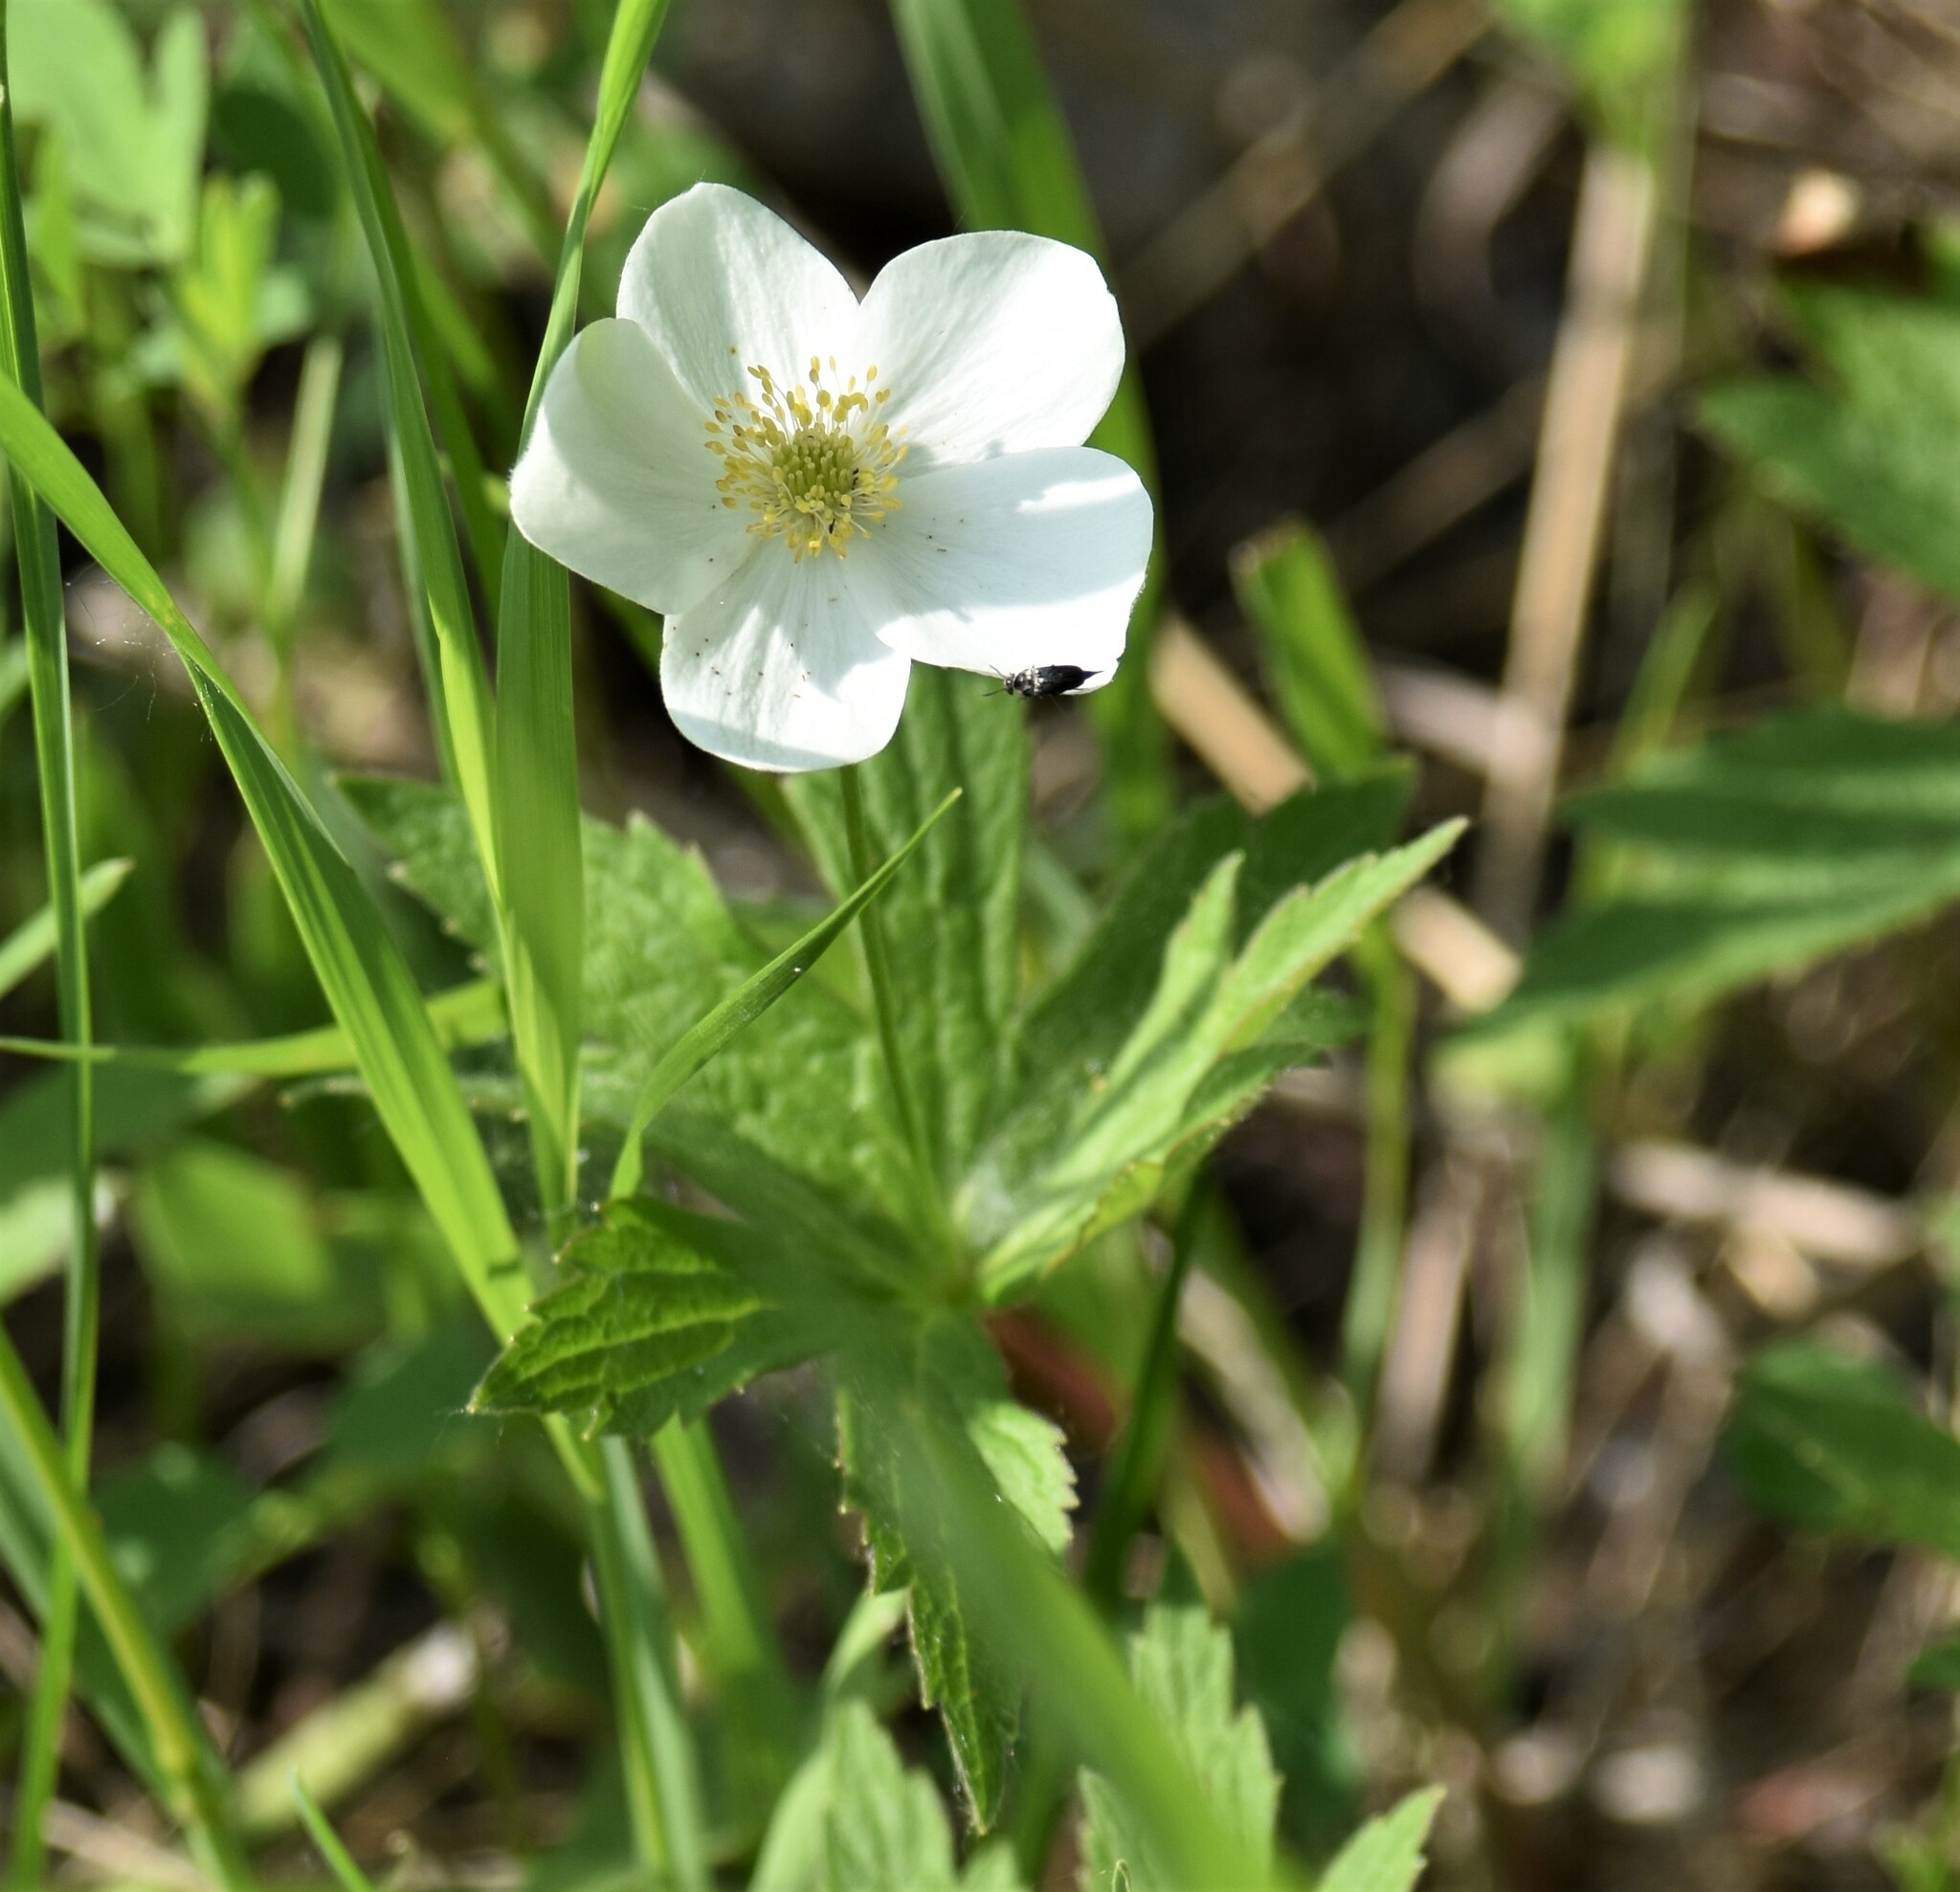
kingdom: Plantae
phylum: Tracheophyta
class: Magnoliopsida
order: Ranunculales
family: Ranunculaceae
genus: Anemonastrum
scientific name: Anemonastrum canadense
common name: Canada anemone
